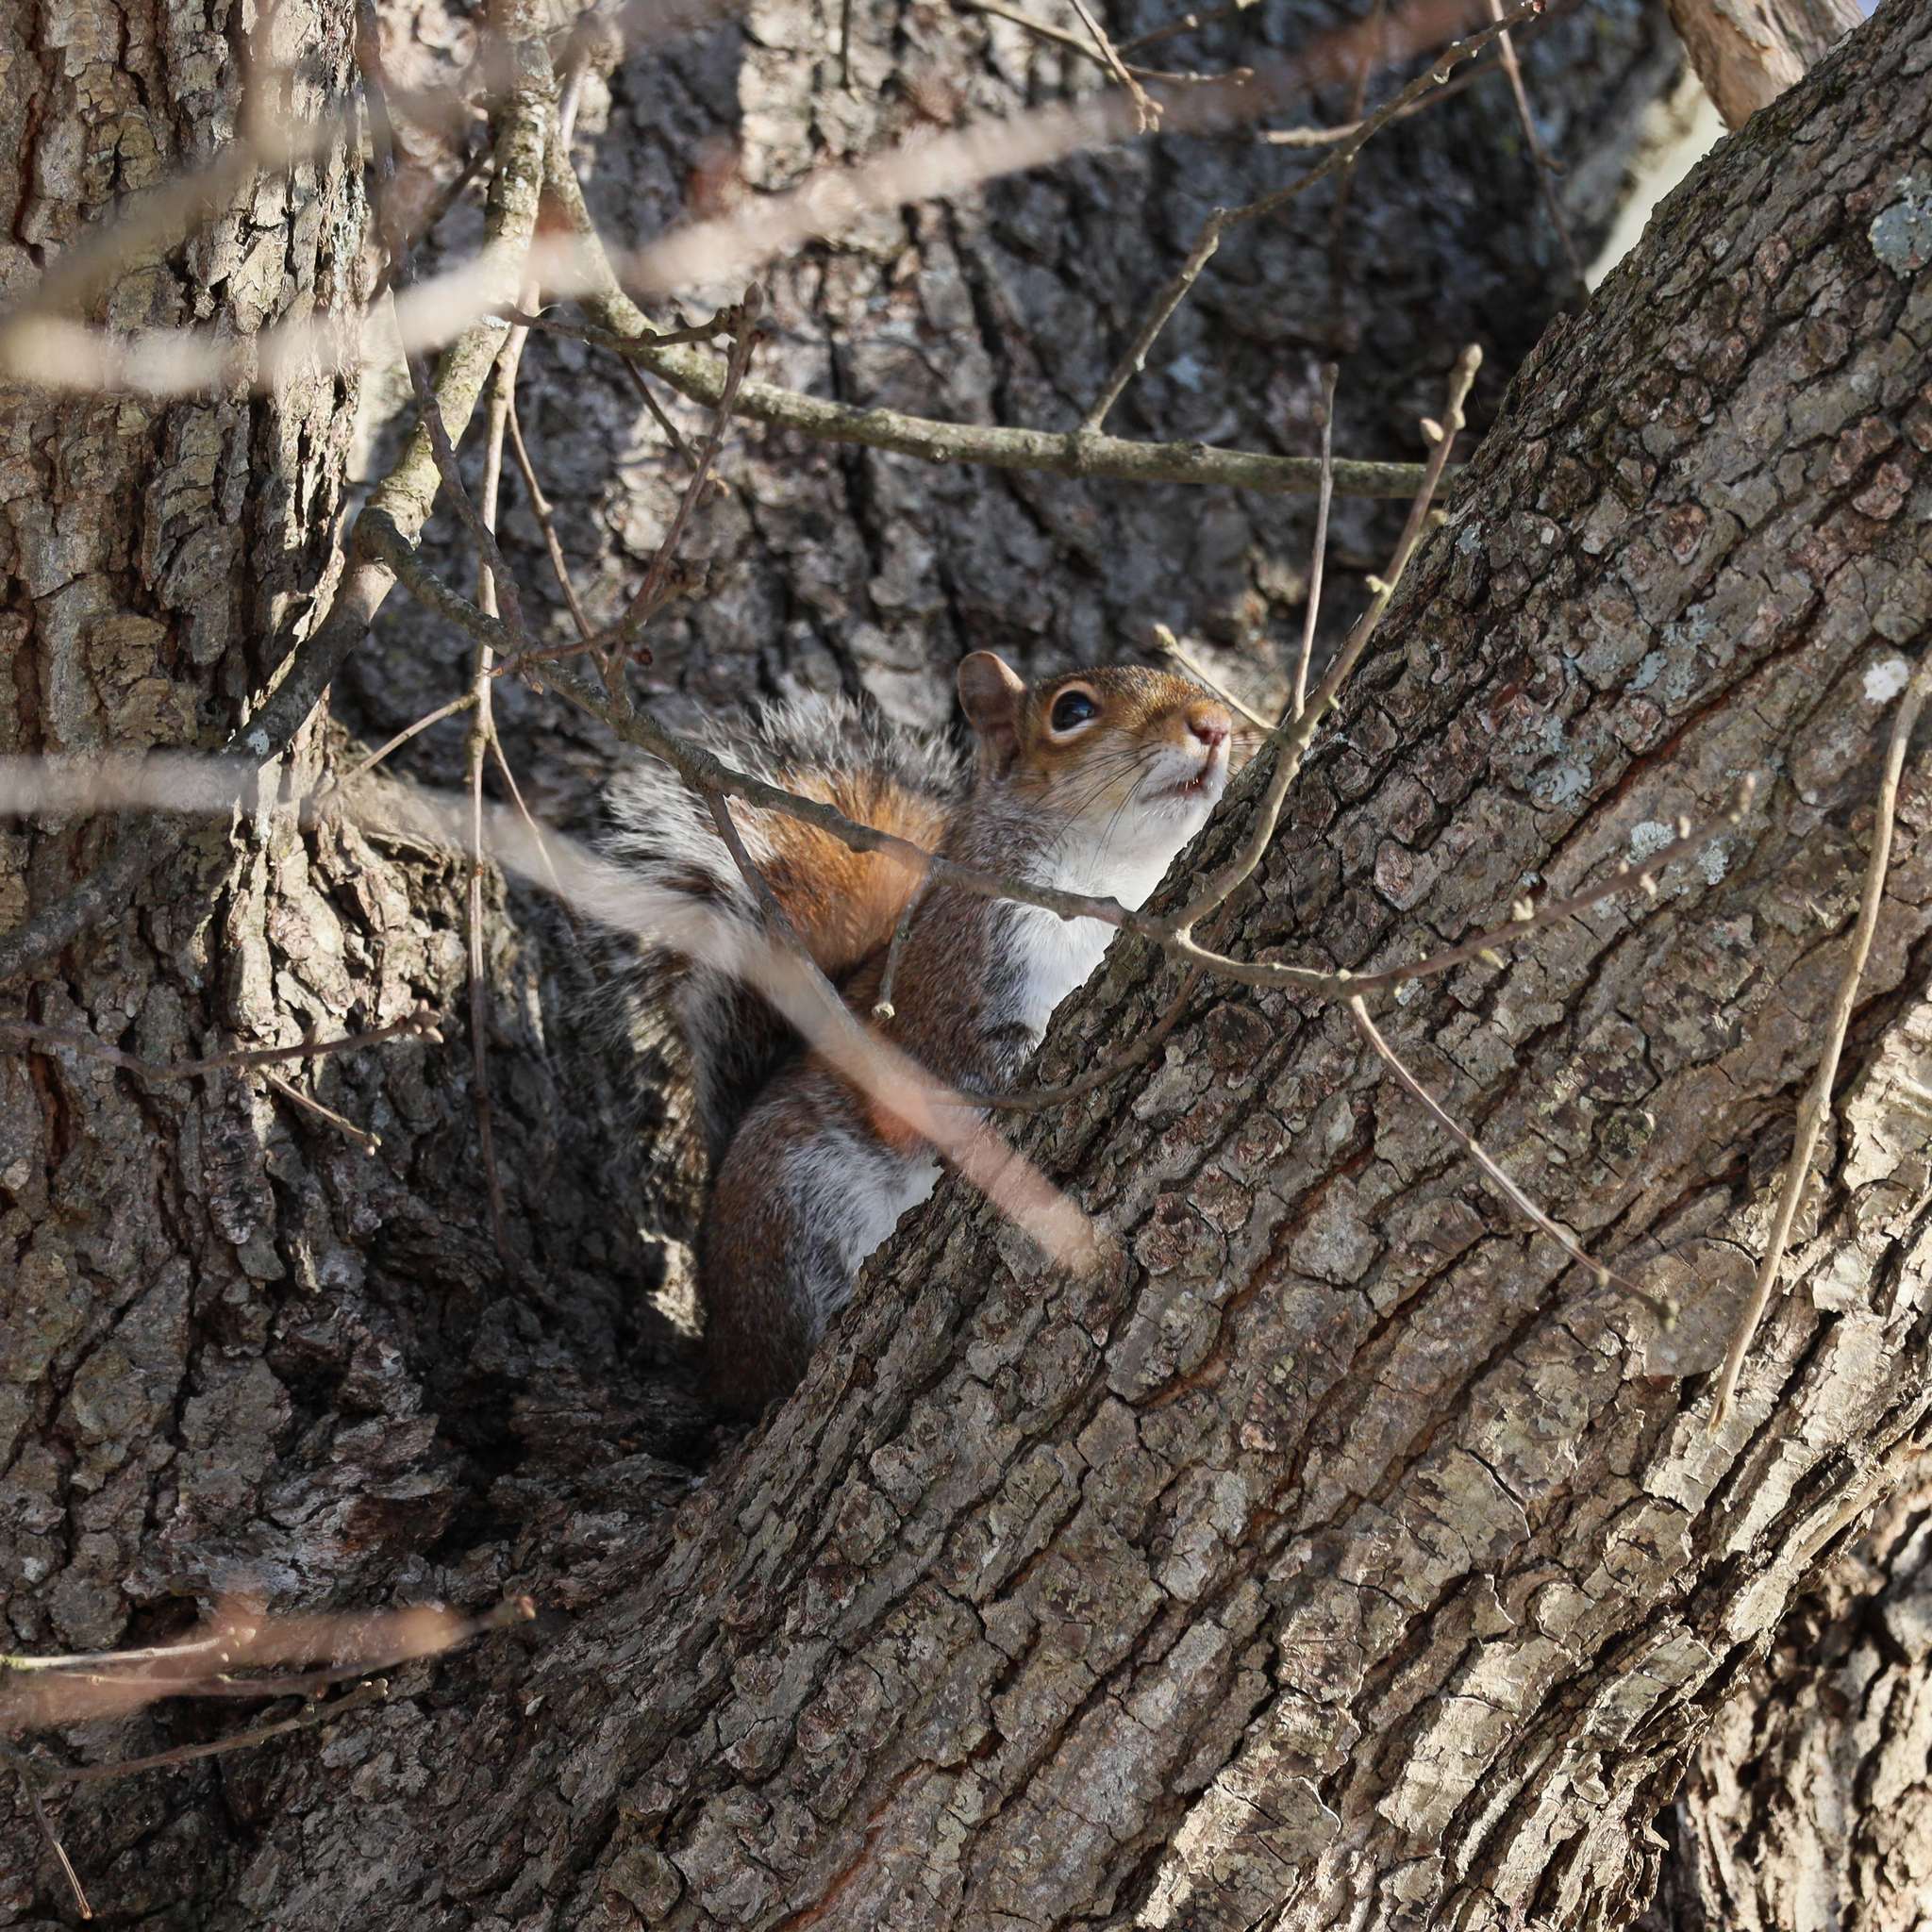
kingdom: Animalia
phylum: Chordata
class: Mammalia
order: Rodentia
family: Sciuridae
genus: Sciurus
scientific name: Sciurus carolinensis
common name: Eastern gray squirrel
